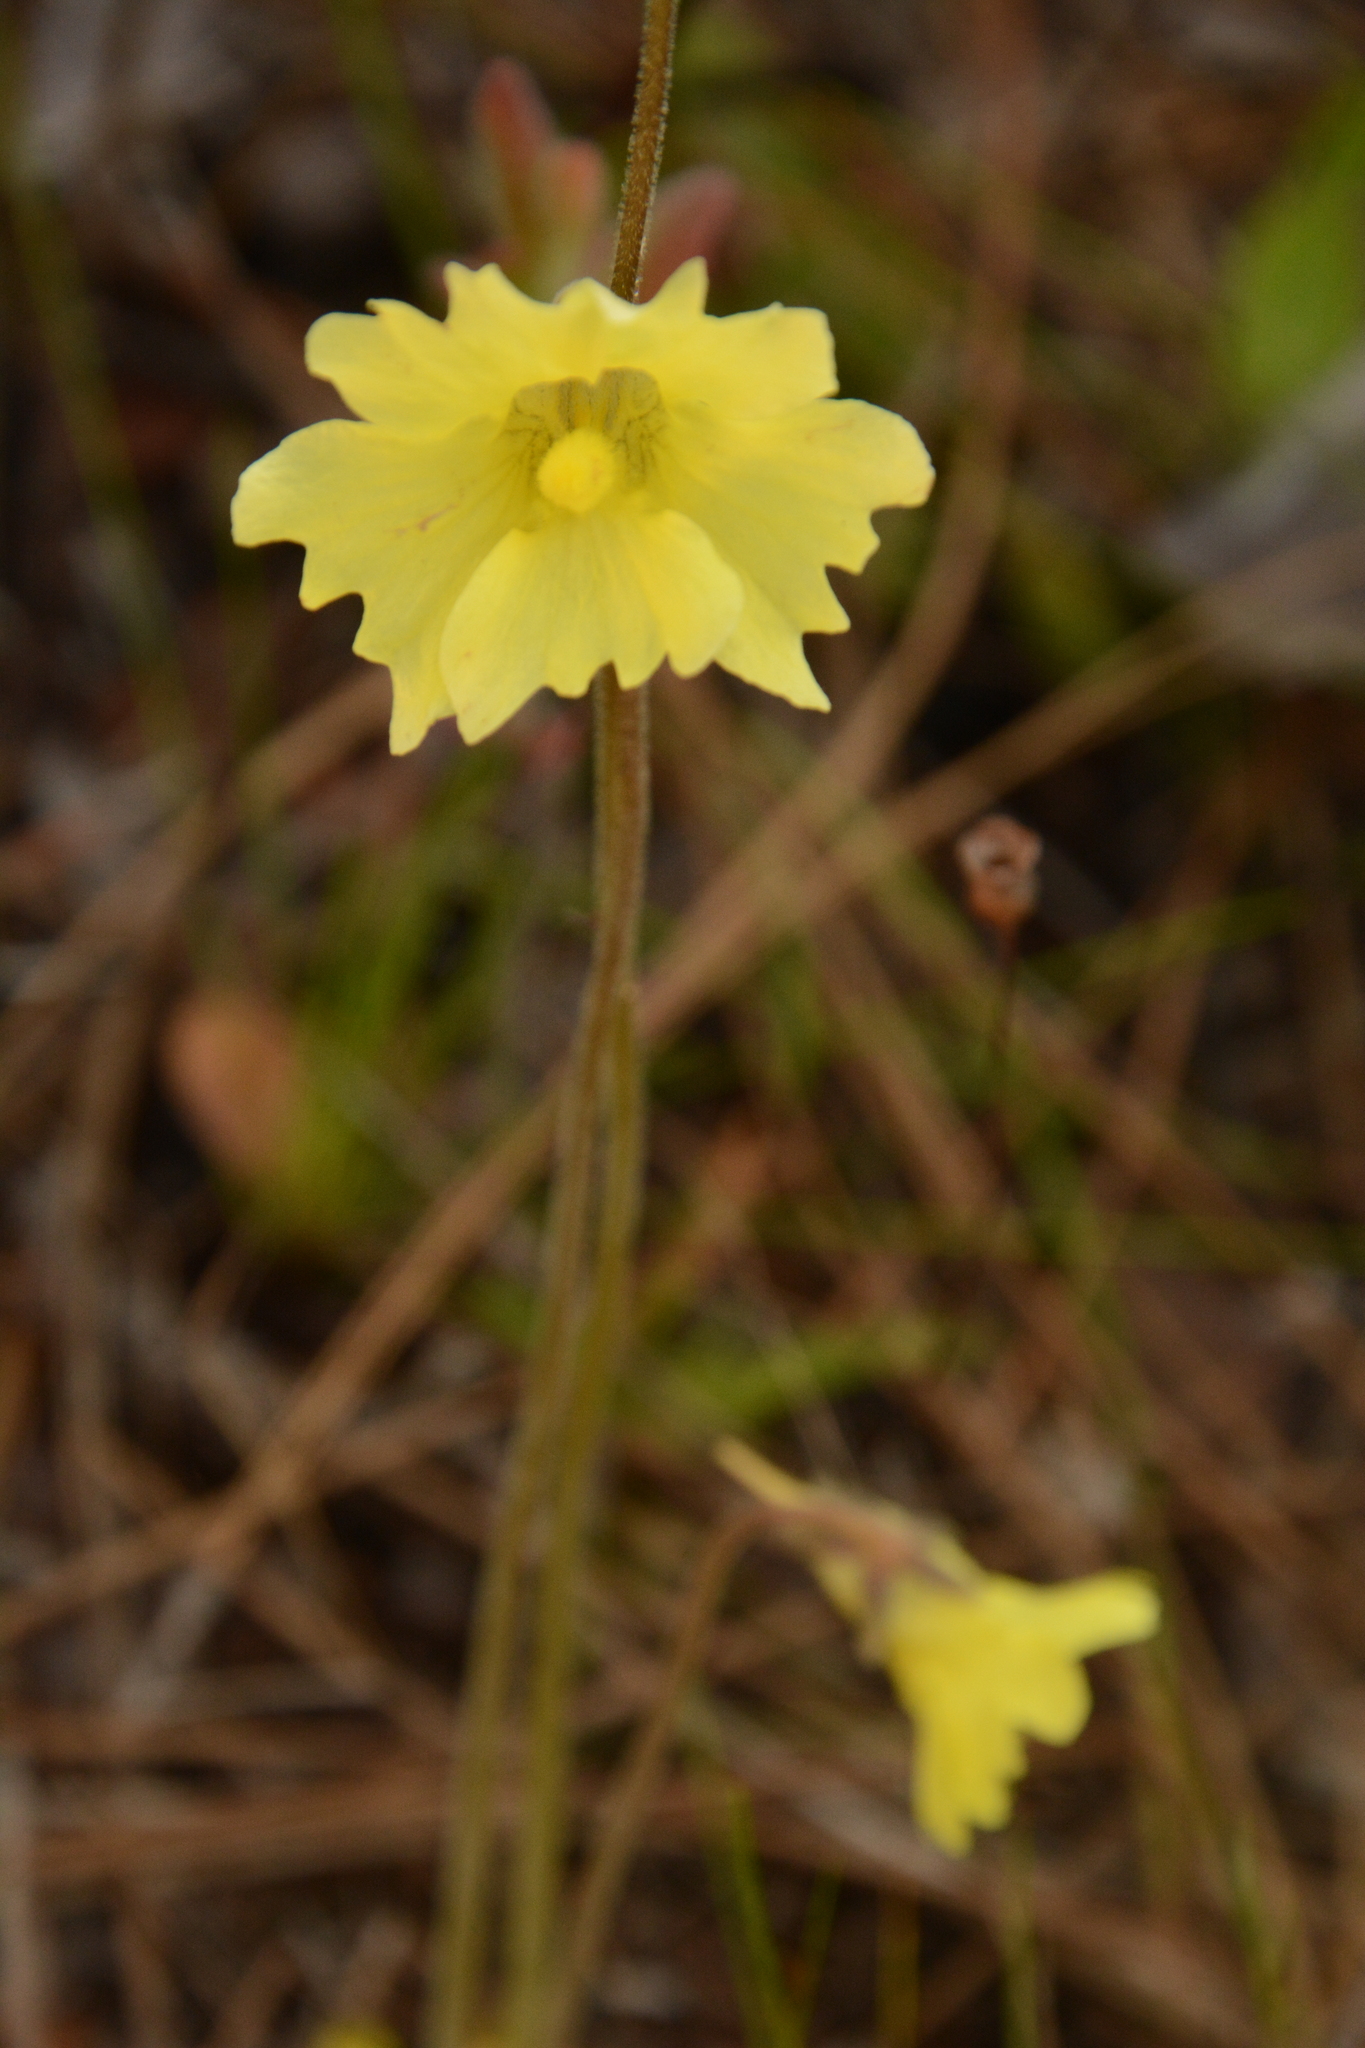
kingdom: Plantae
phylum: Tracheophyta
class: Magnoliopsida
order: Lamiales
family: Lentibulariaceae
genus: Pinguicula
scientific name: Pinguicula lutea
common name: Yellow butterwort
